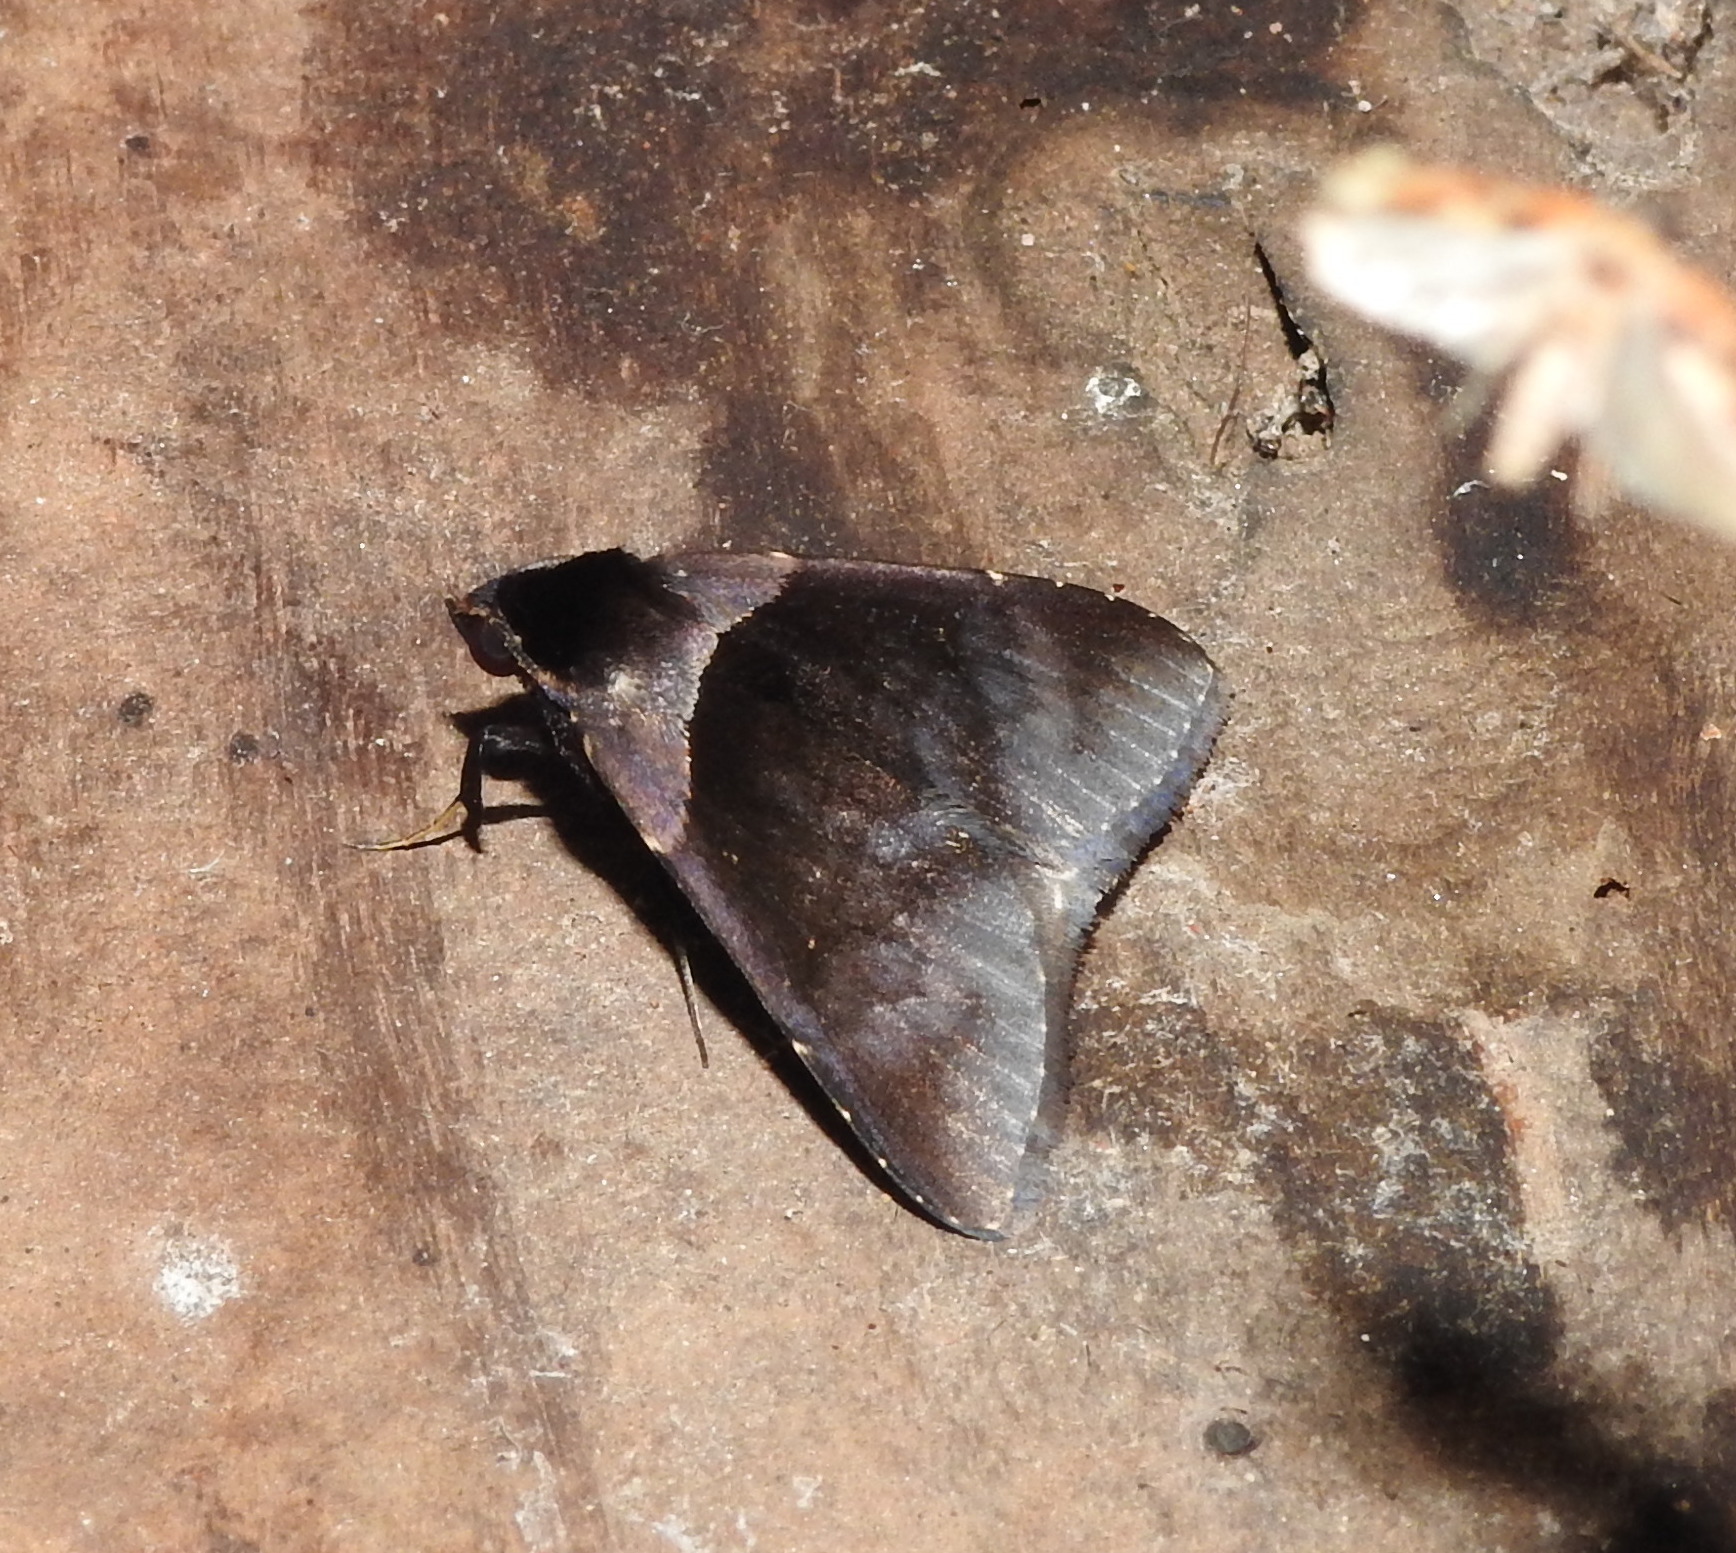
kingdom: Animalia
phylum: Arthropoda
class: Insecta
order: Lepidoptera
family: Erebidae
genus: Crithote
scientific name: Crithote pallivaga
